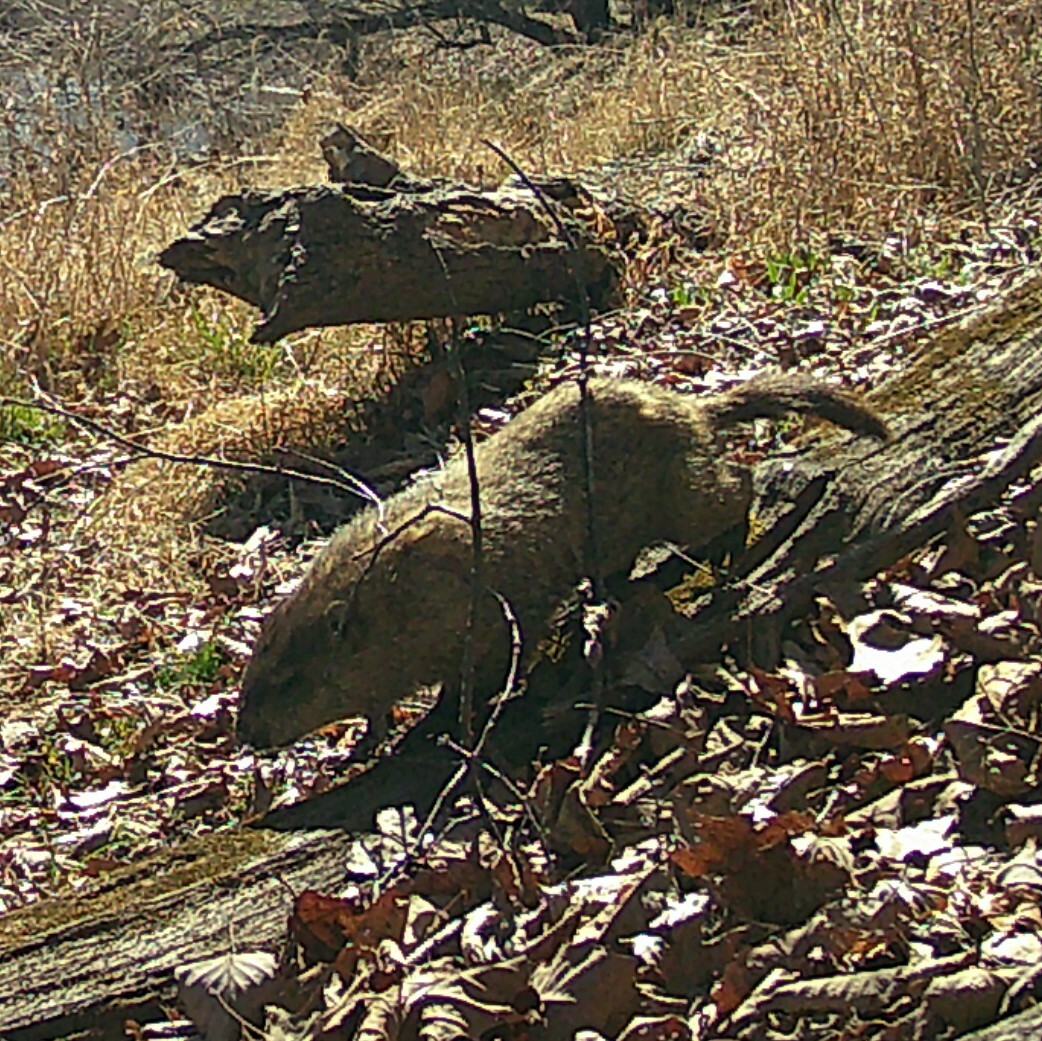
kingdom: Animalia
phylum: Chordata
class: Mammalia
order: Rodentia
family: Sciuridae
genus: Marmota
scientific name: Marmota monax
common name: Groundhog
